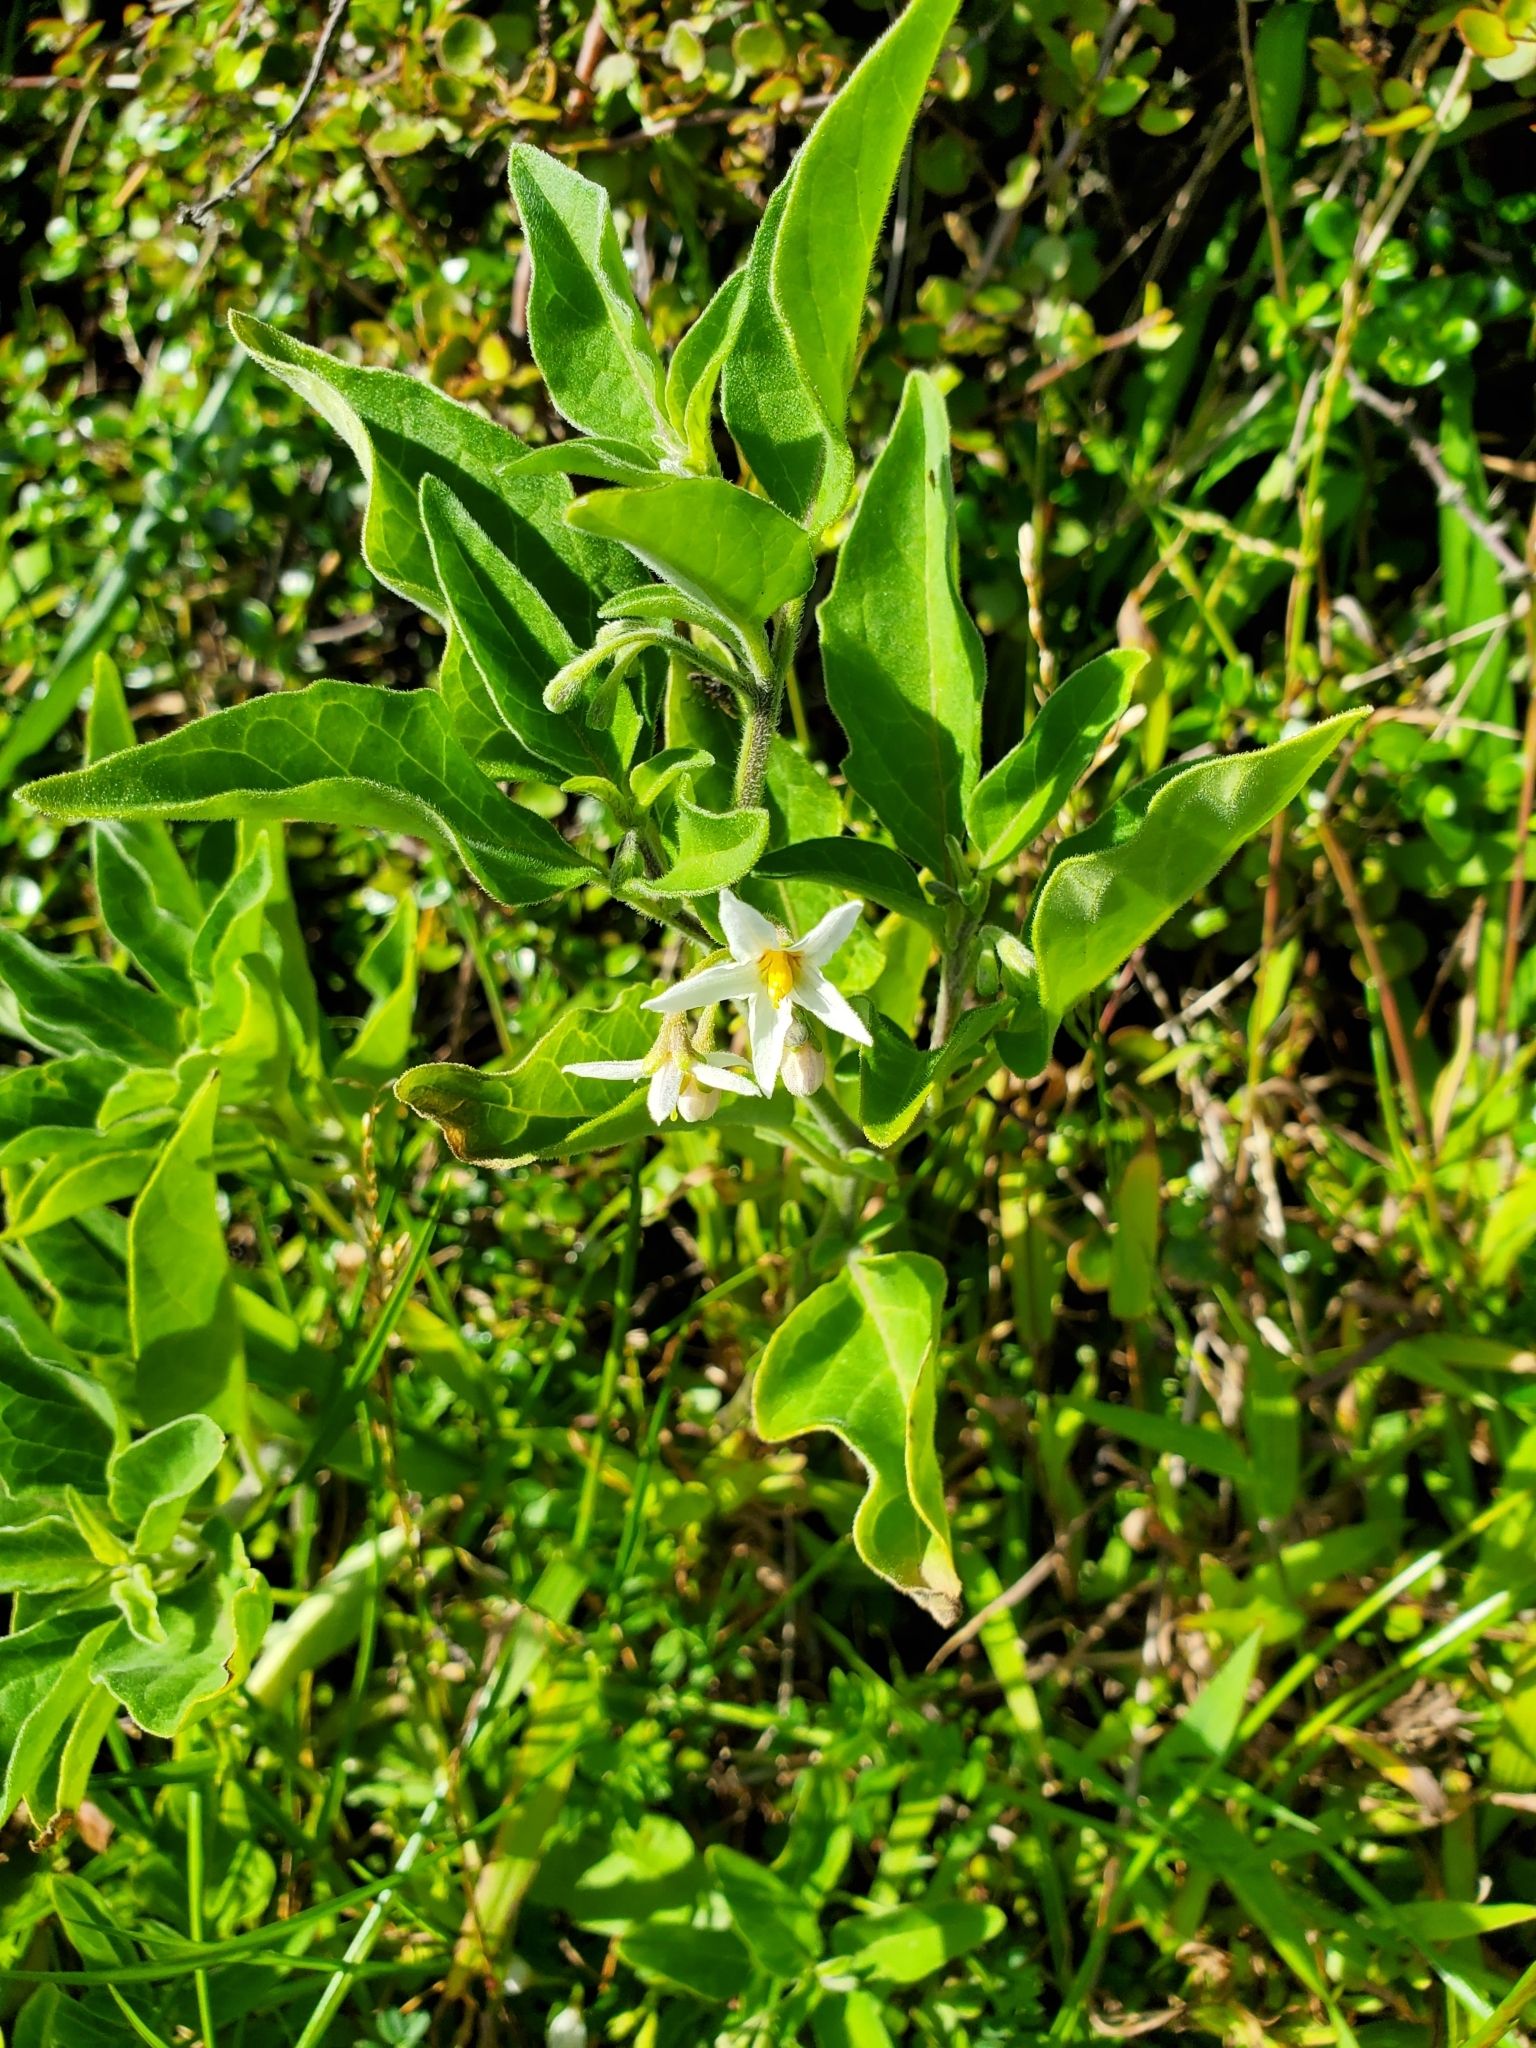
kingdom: Plantae
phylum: Tracheophyta
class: Magnoliopsida
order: Solanales
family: Solanaceae
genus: Solanum
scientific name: Solanum chenopodioides
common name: Tall nightshade
